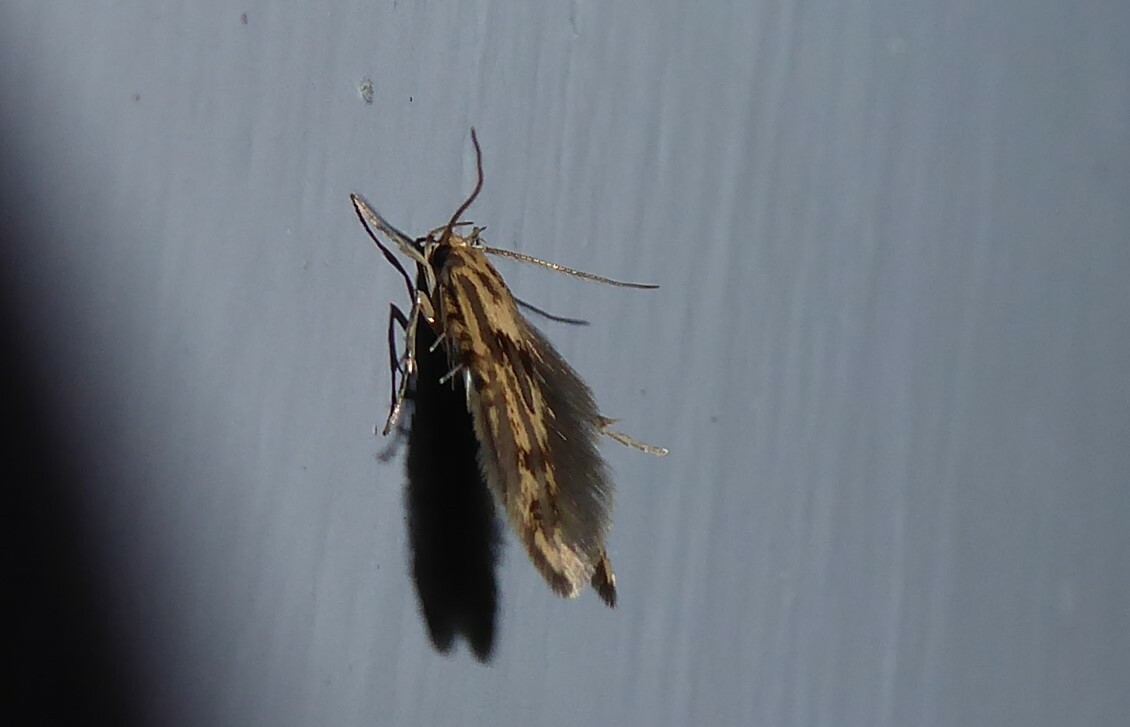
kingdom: Animalia
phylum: Arthropoda
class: Insecta
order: Lepidoptera
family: Stathmopodidae
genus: Stathmopoda
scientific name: Stathmopoda plumbiflua
